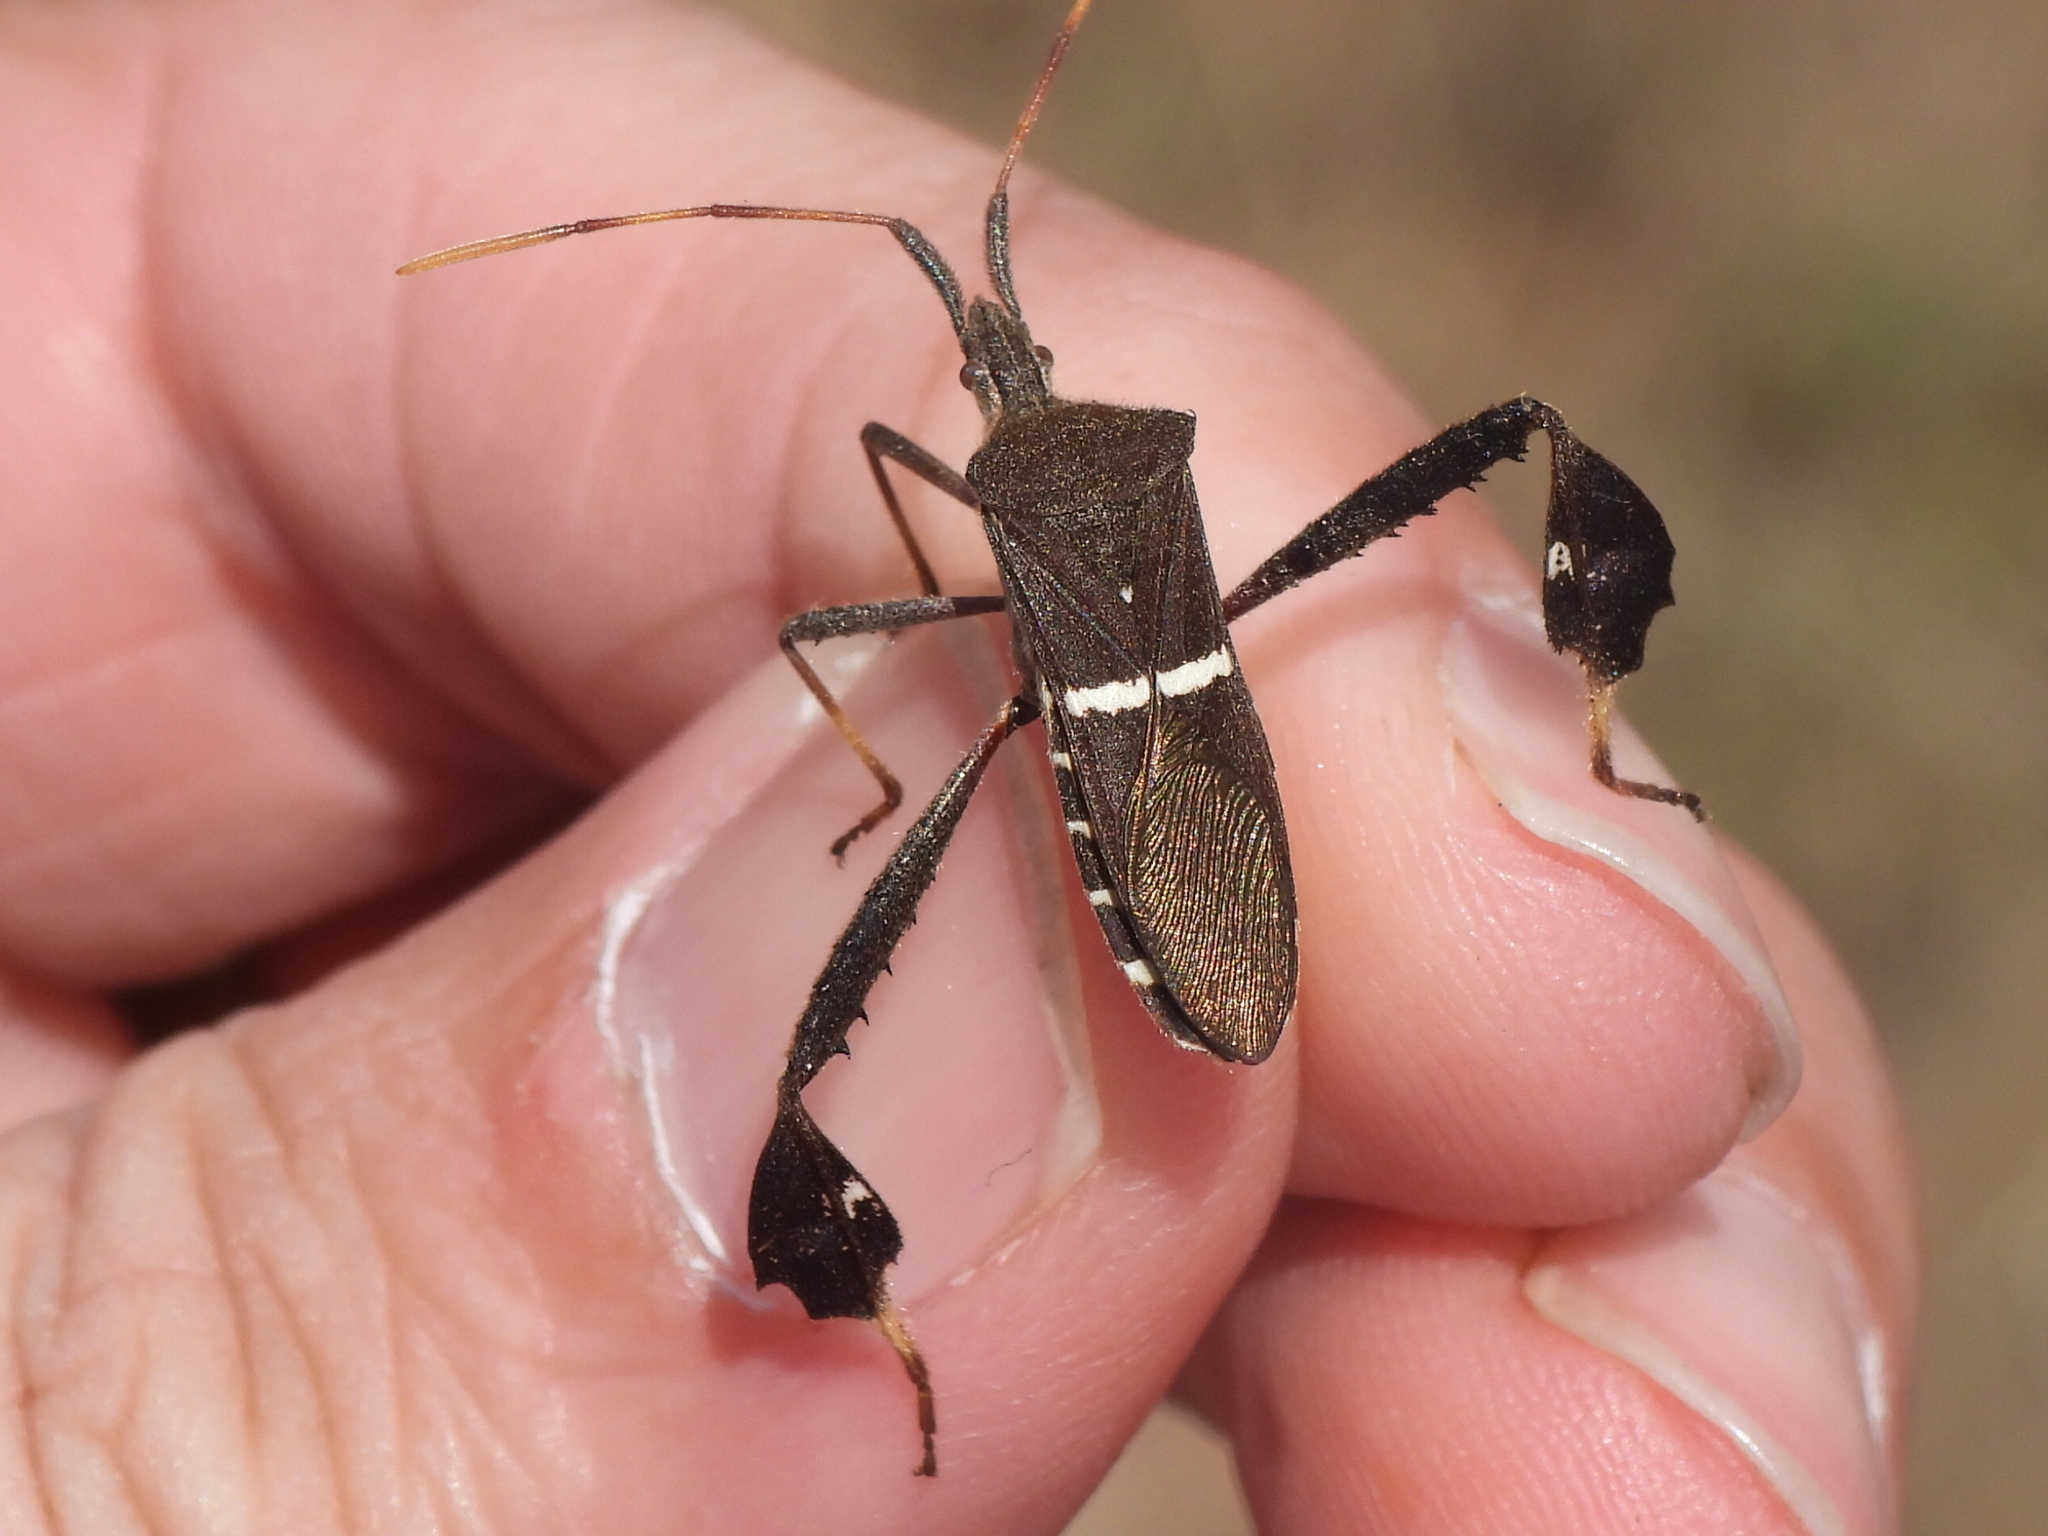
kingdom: Animalia
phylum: Arthropoda
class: Insecta
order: Hemiptera
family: Coreidae
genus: Leptoglossus
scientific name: Leptoglossus phyllopus
